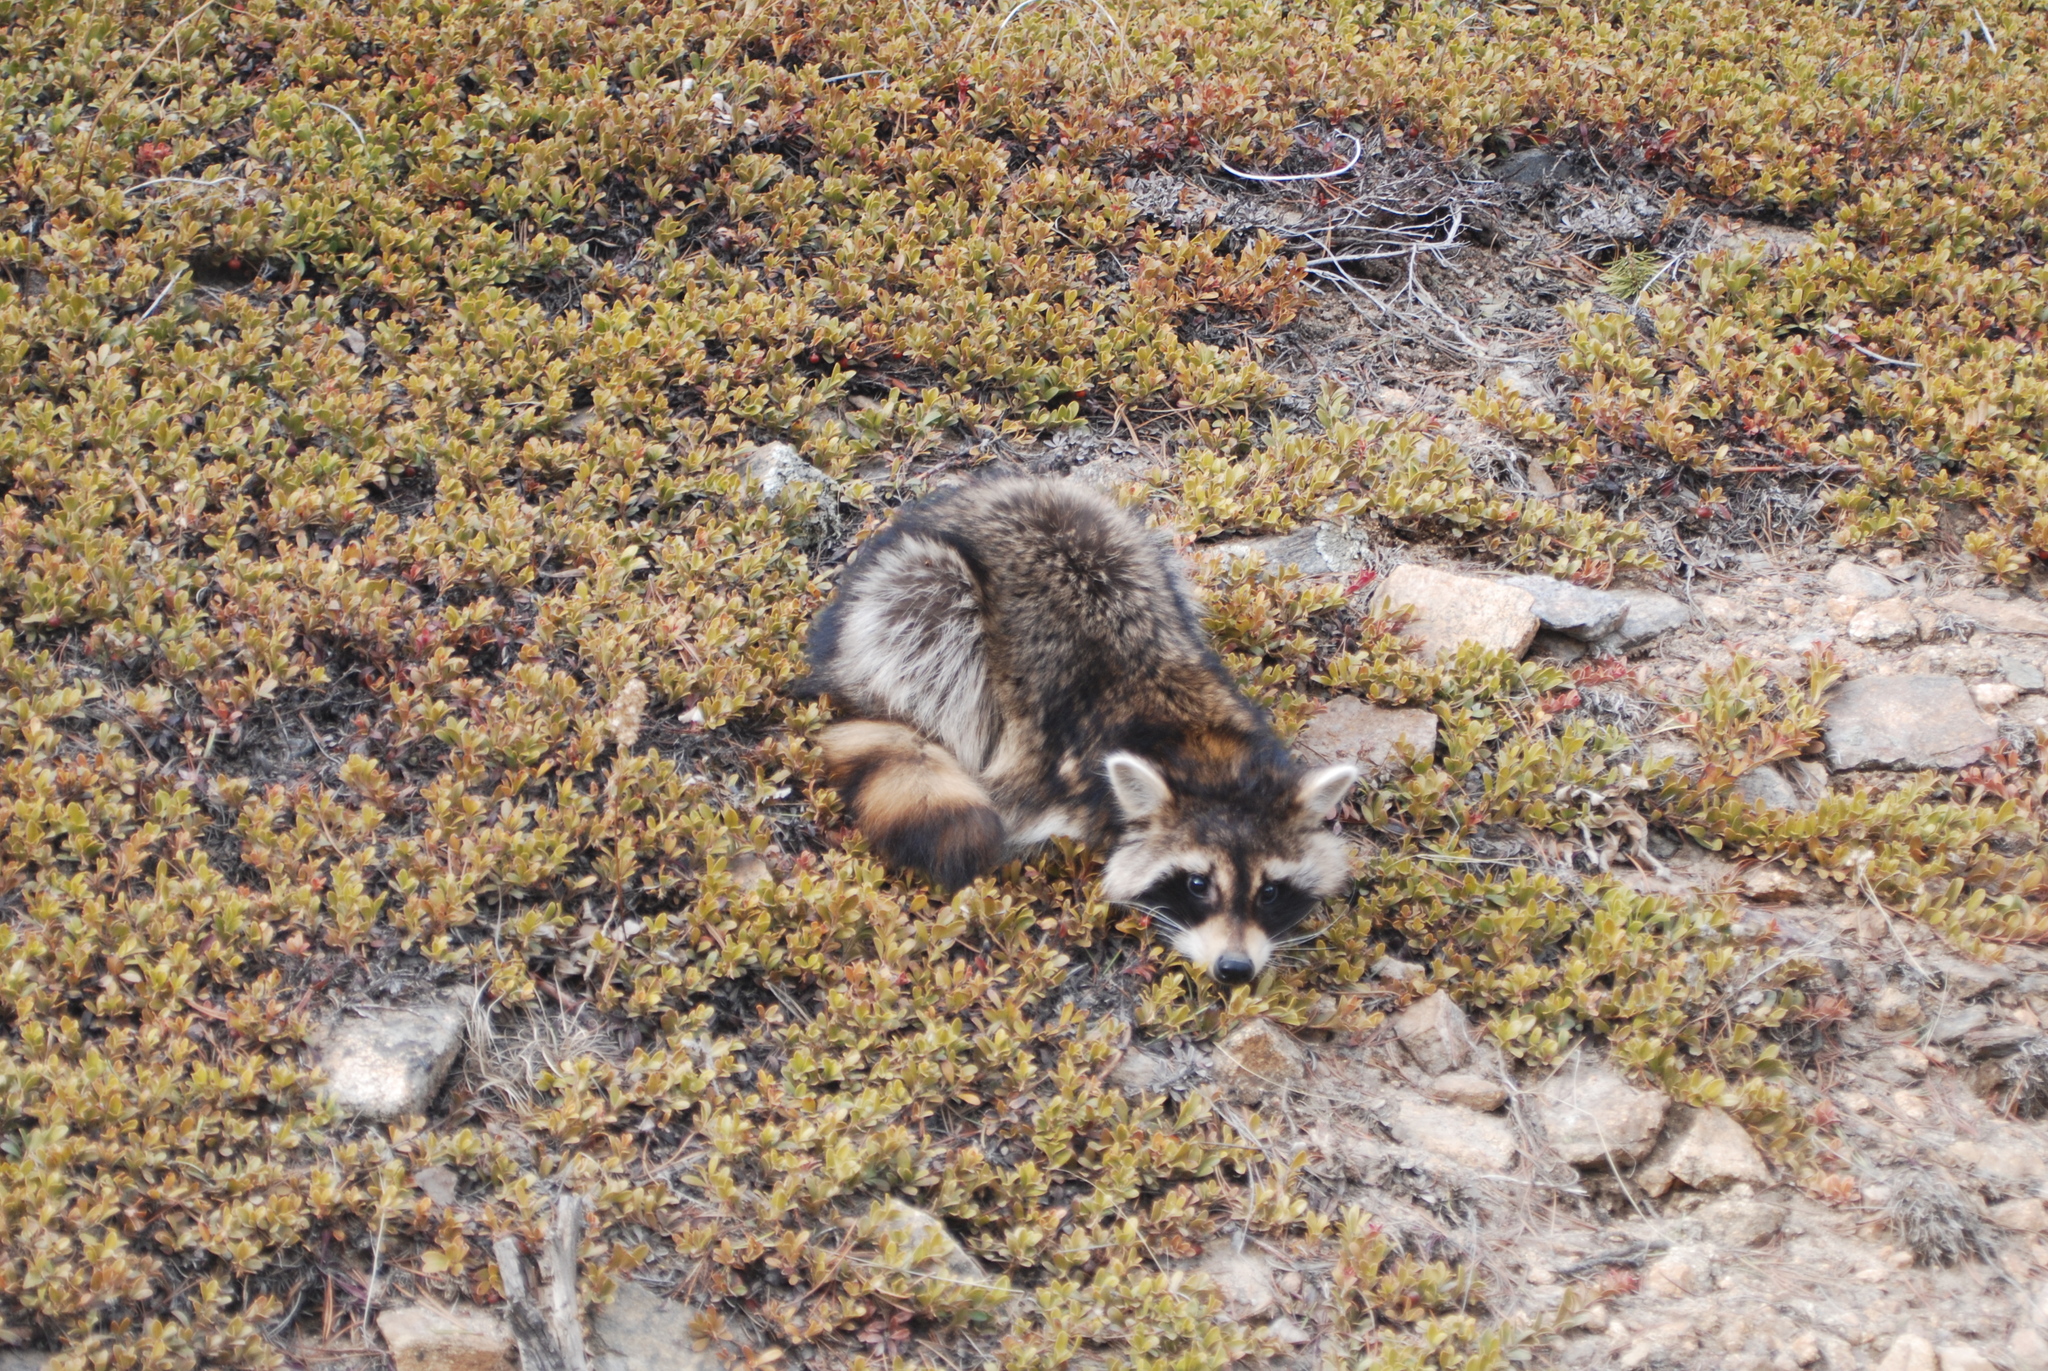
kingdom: Animalia
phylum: Chordata
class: Mammalia
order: Carnivora
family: Procyonidae
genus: Procyon
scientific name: Procyon lotor
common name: Raccoon
